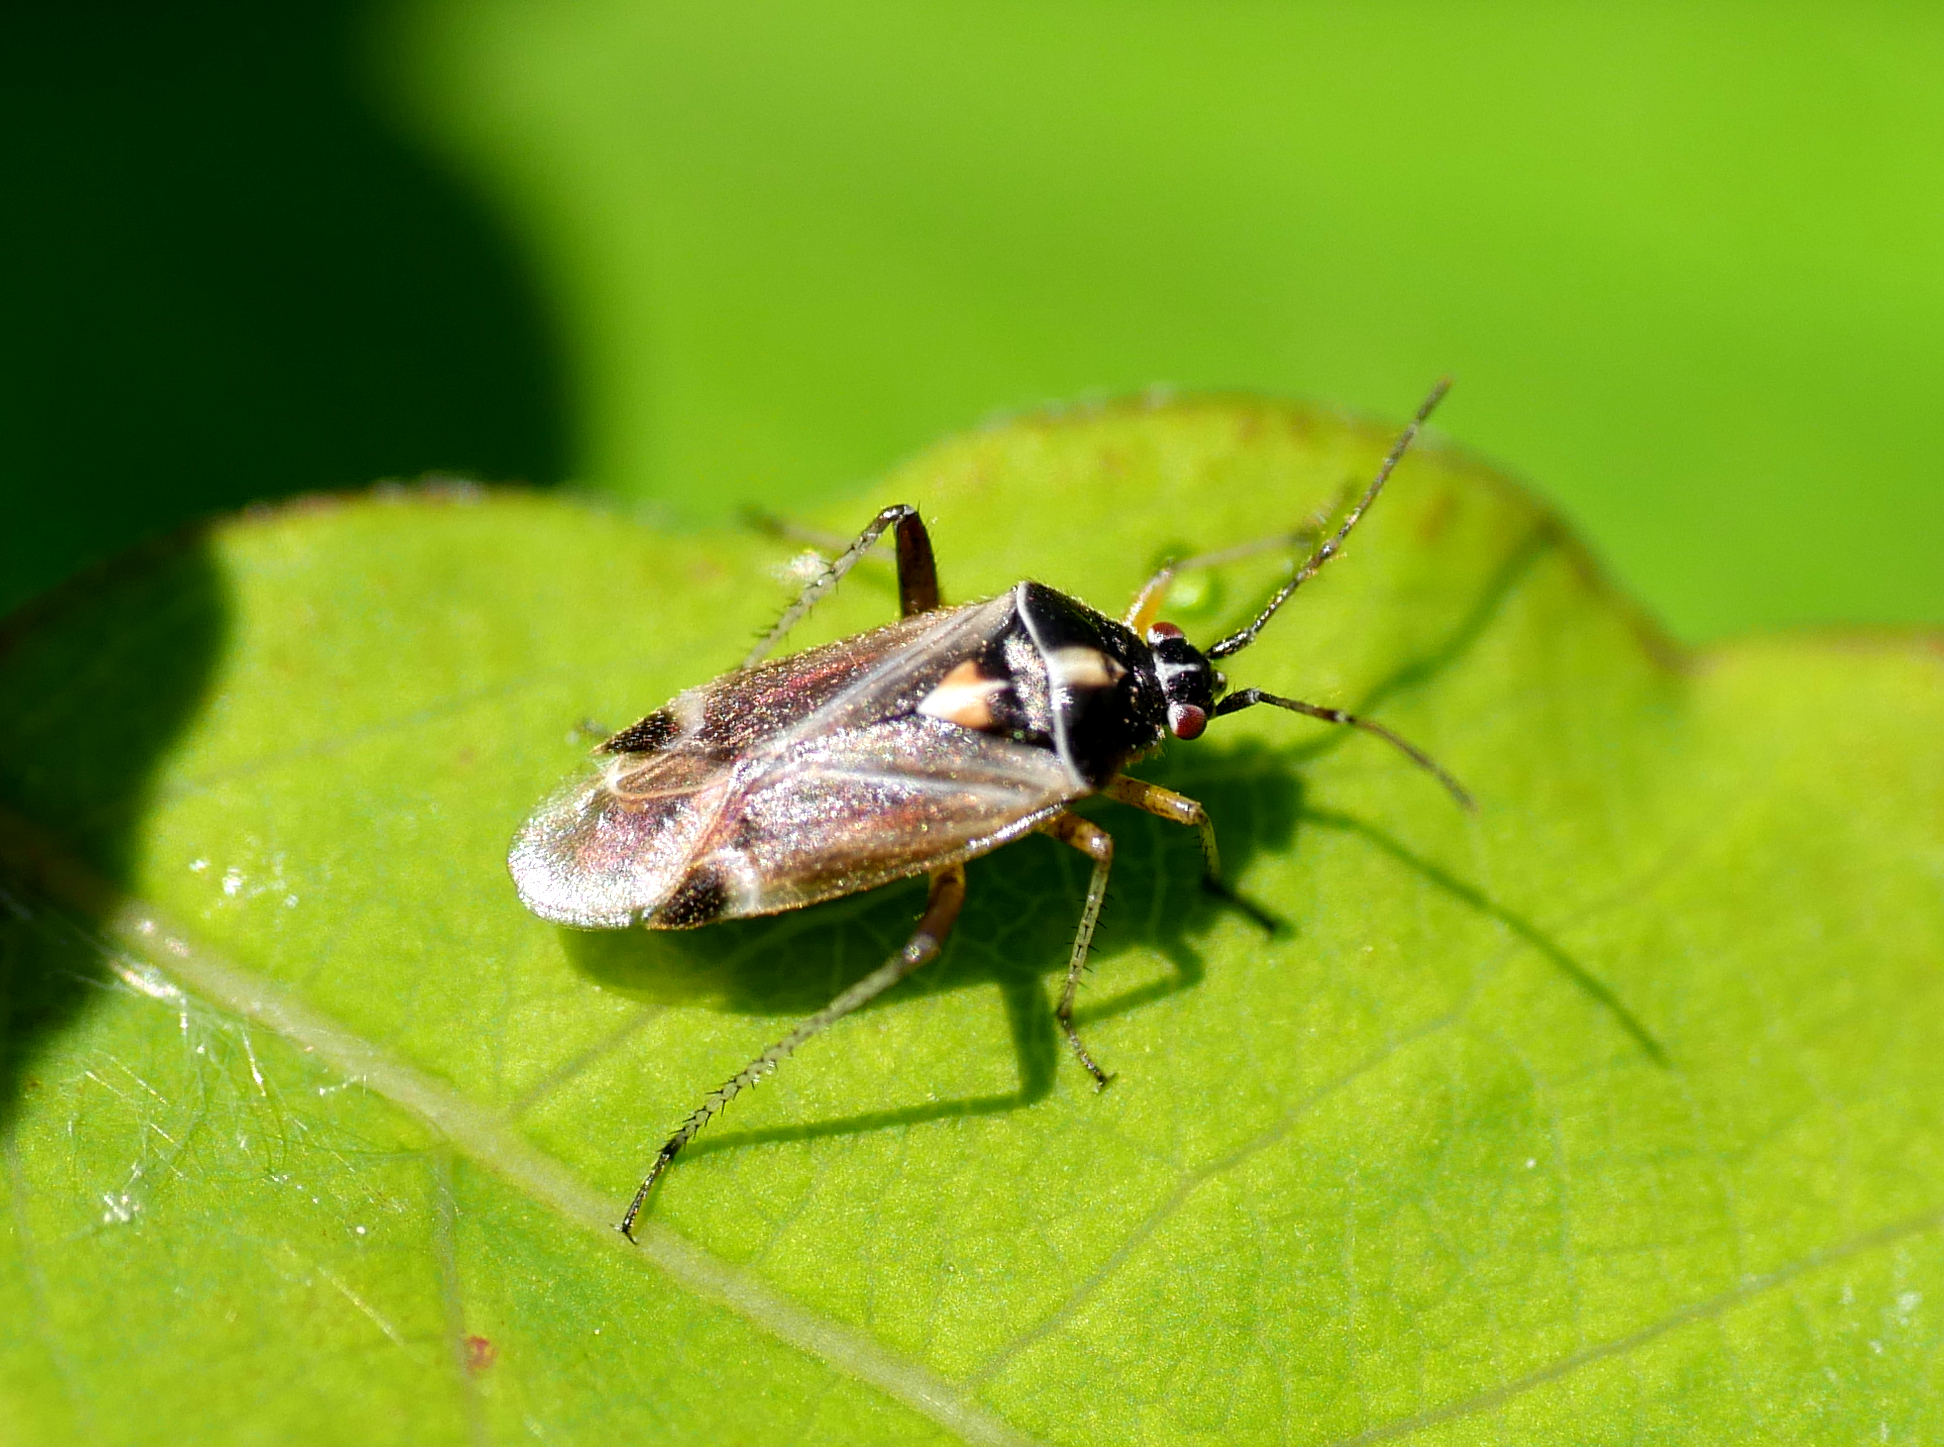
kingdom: Animalia
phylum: Arthropoda
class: Insecta
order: Hemiptera
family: Miridae
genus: Harpocera
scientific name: Harpocera thoracica
